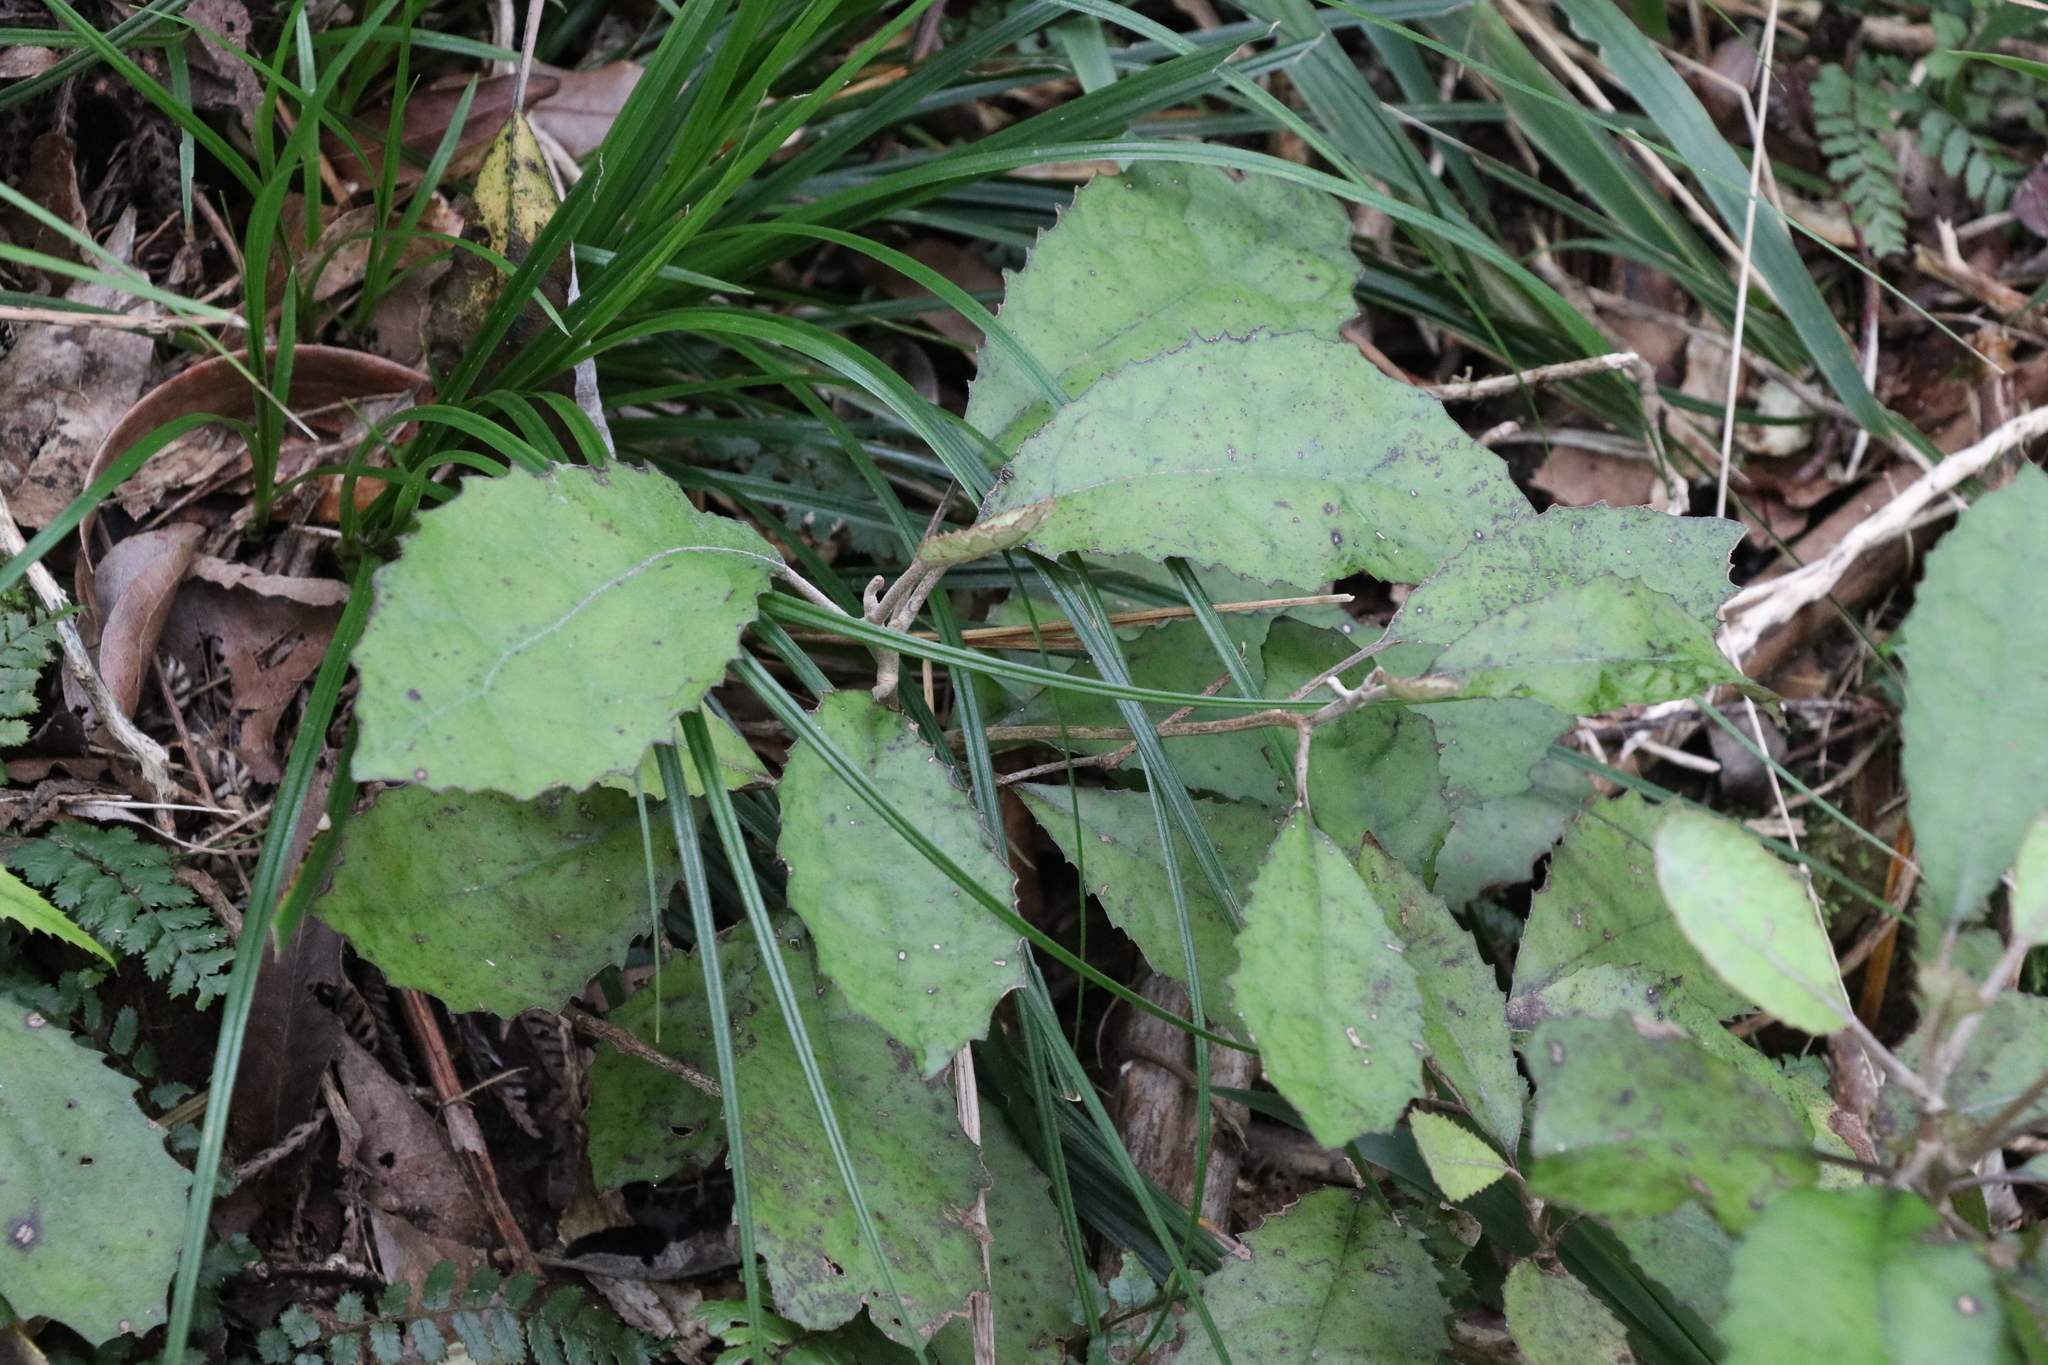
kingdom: Plantae
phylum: Tracheophyta
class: Magnoliopsida
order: Asterales
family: Asteraceae
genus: Olearia
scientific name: Olearia rani
